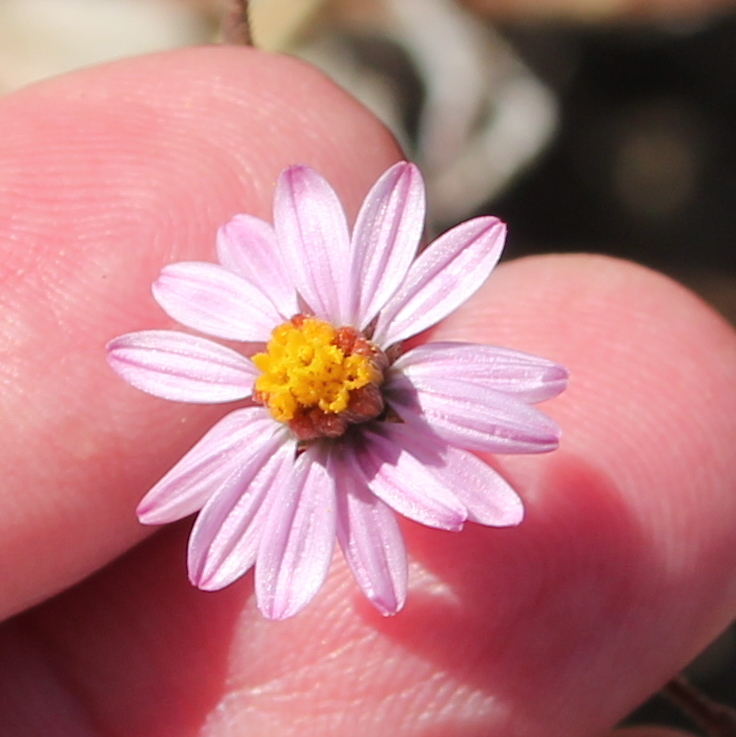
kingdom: Plantae
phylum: Tracheophyta
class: Magnoliopsida
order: Asterales
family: Asteraceae
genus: Corethrogyne
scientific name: Corethrogyne filaginifolia
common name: Sand-aster
